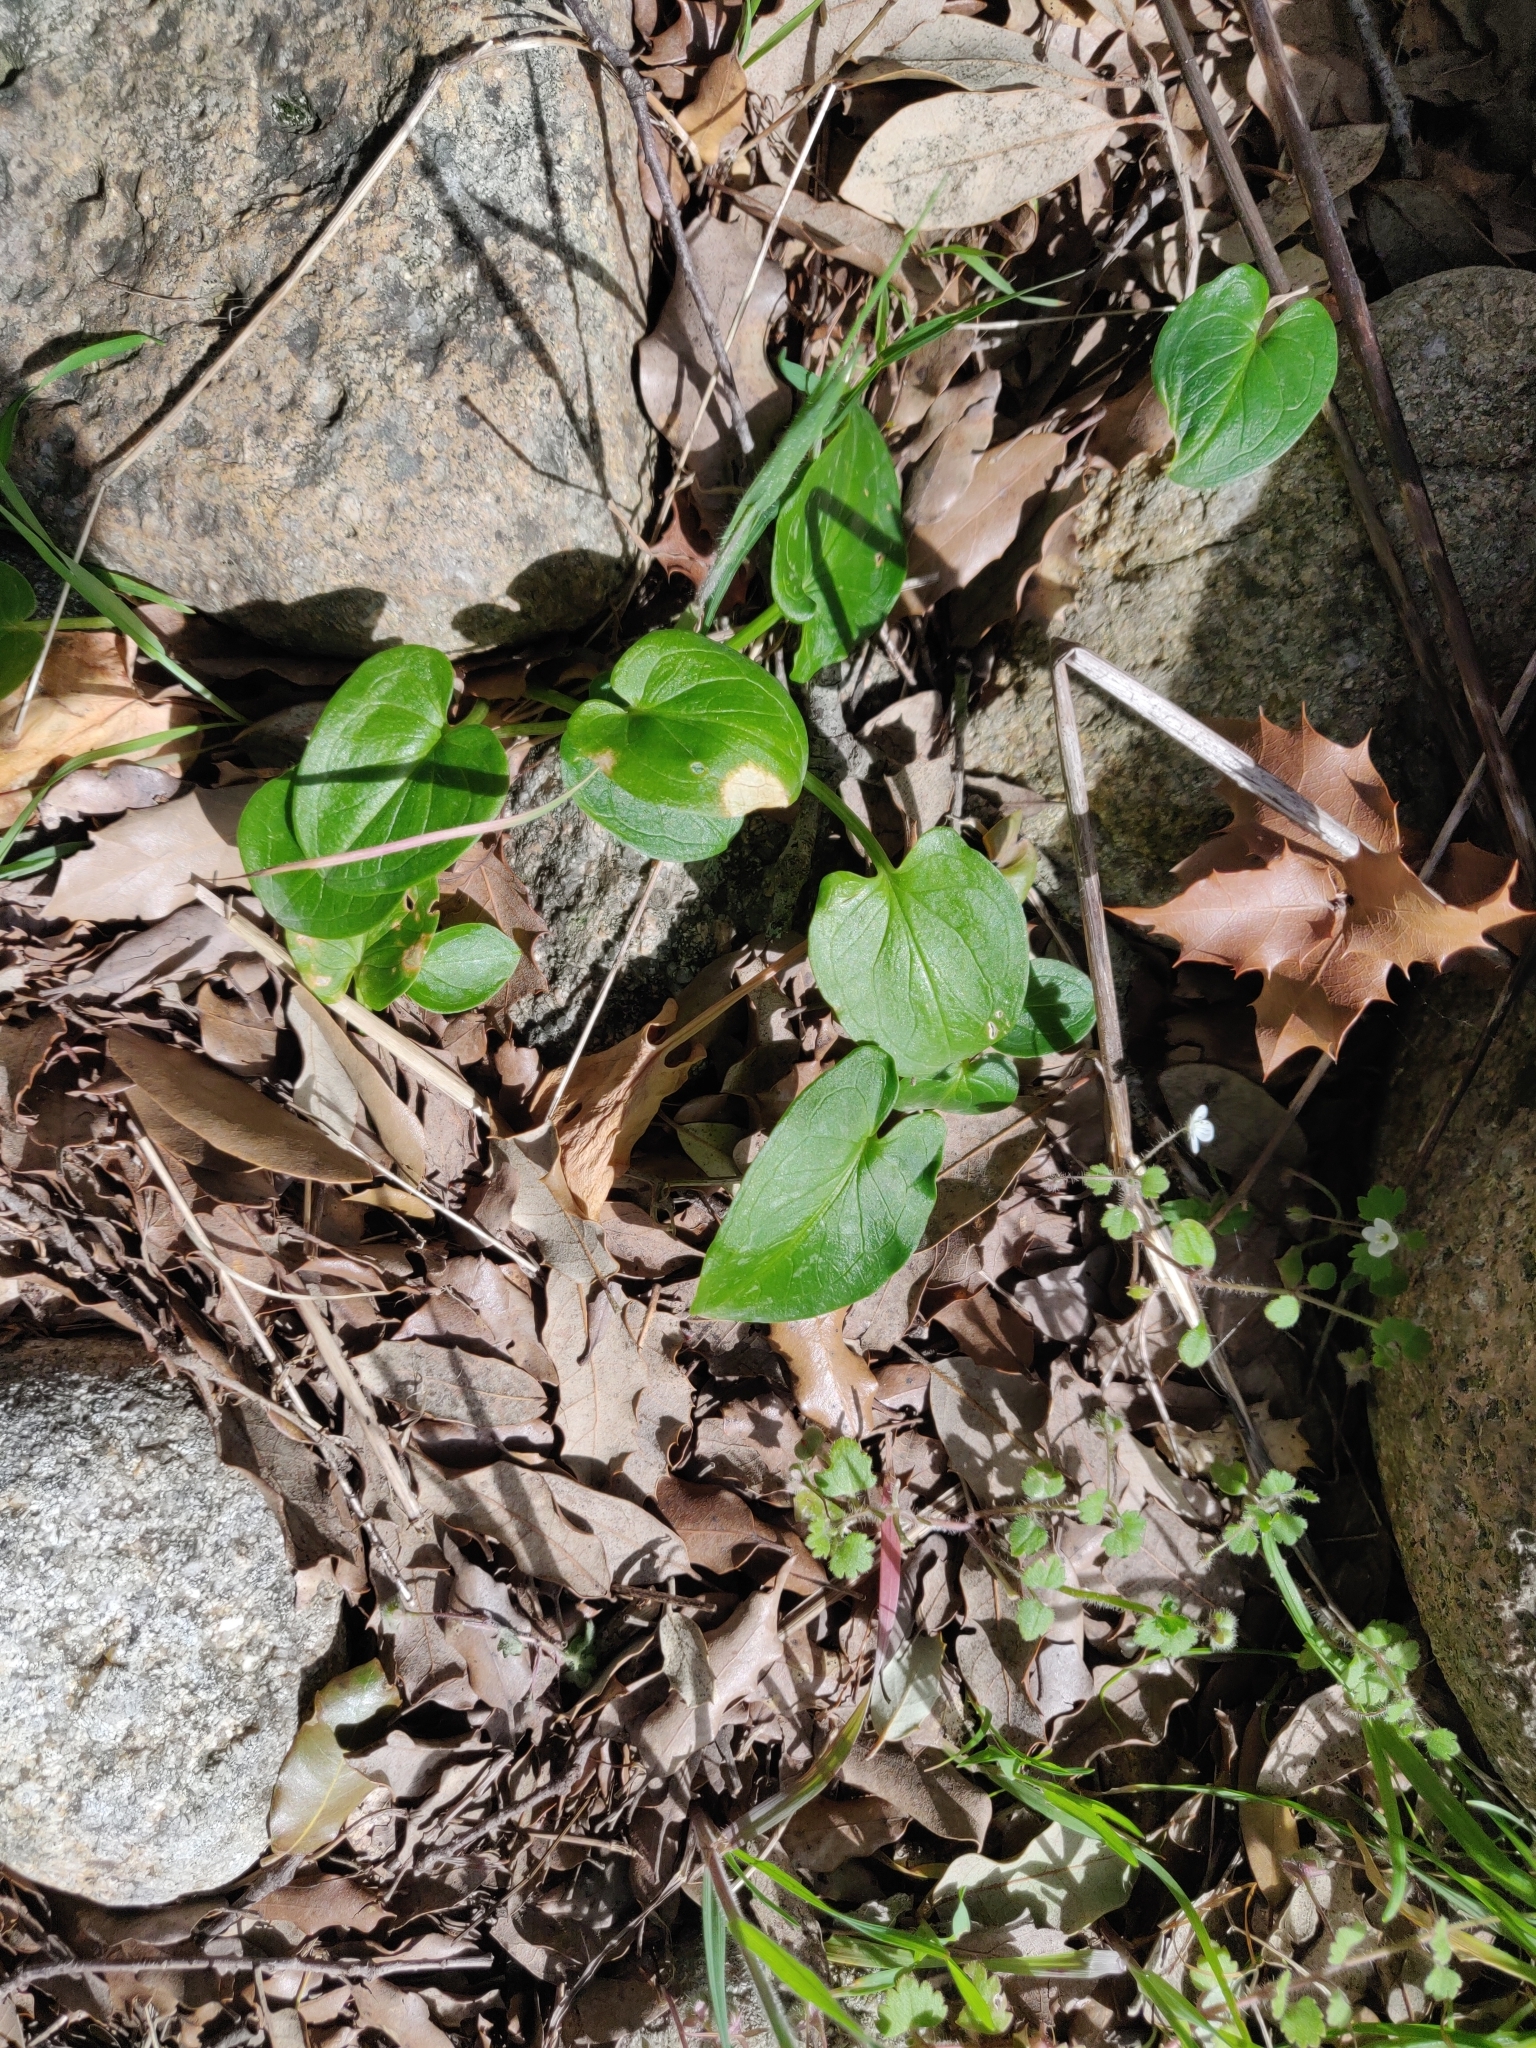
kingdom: Plantae
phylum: Tracheophyta
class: Liliopsida
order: Alismatales
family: Araceae
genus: Arisarum
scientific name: Arisarum vulgare
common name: Common arisarum
